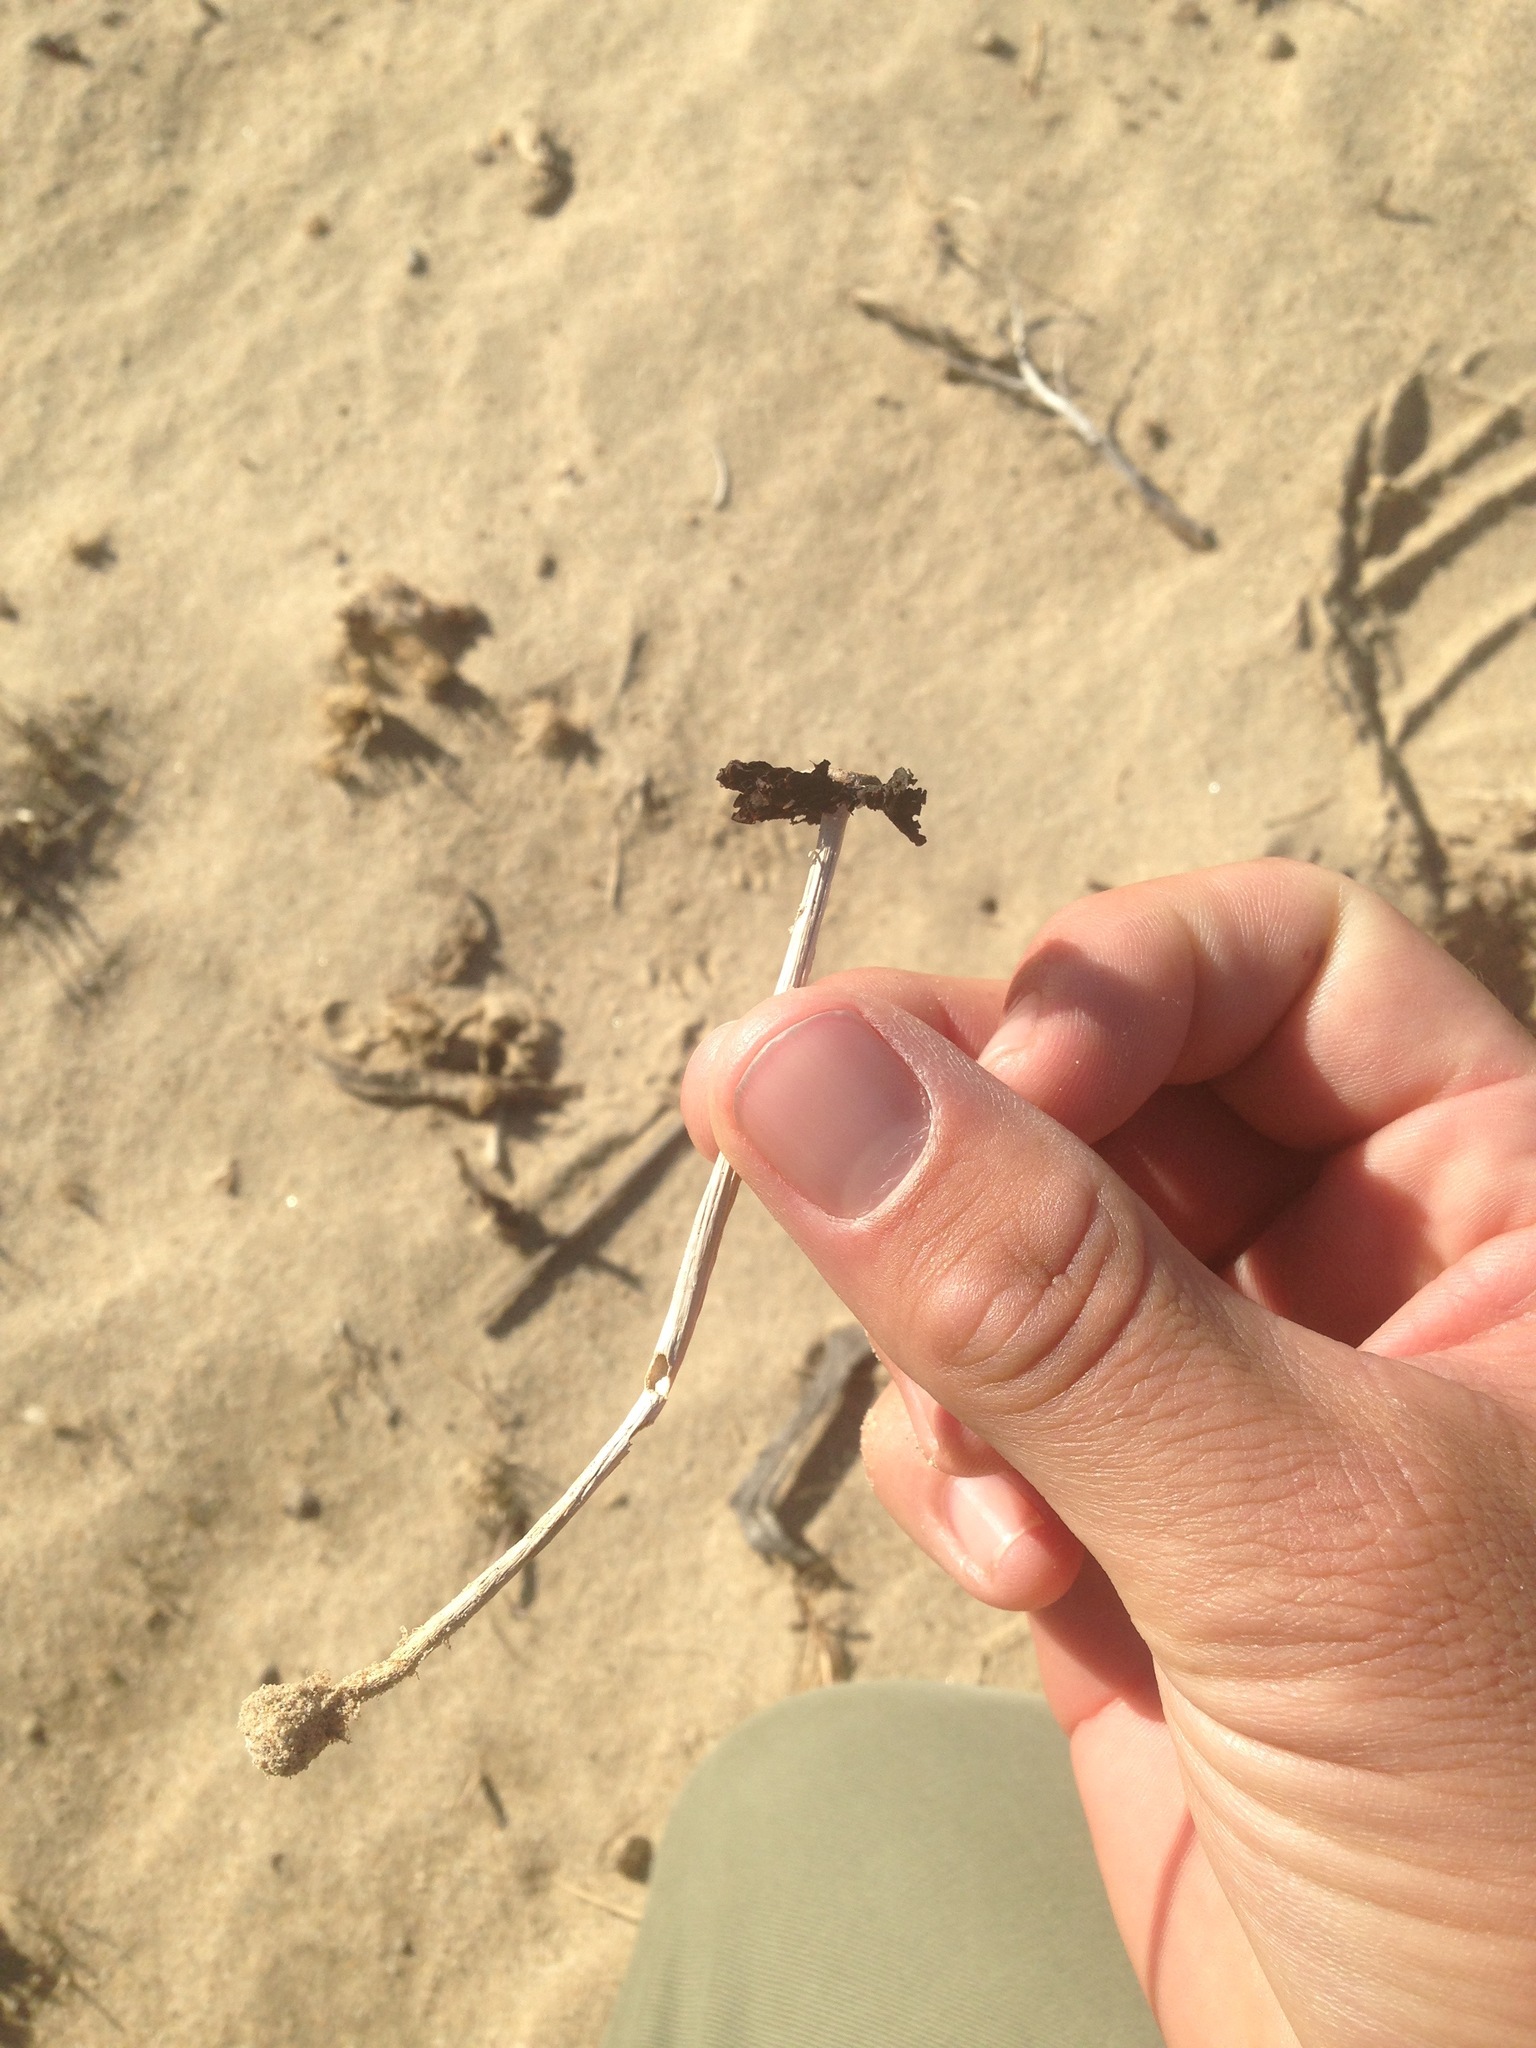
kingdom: Fungi
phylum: Basidiomycota
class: Agaricomycetes
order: Agaricales
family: Agaricaceae
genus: Montagnea
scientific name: Montagnea arenaria
